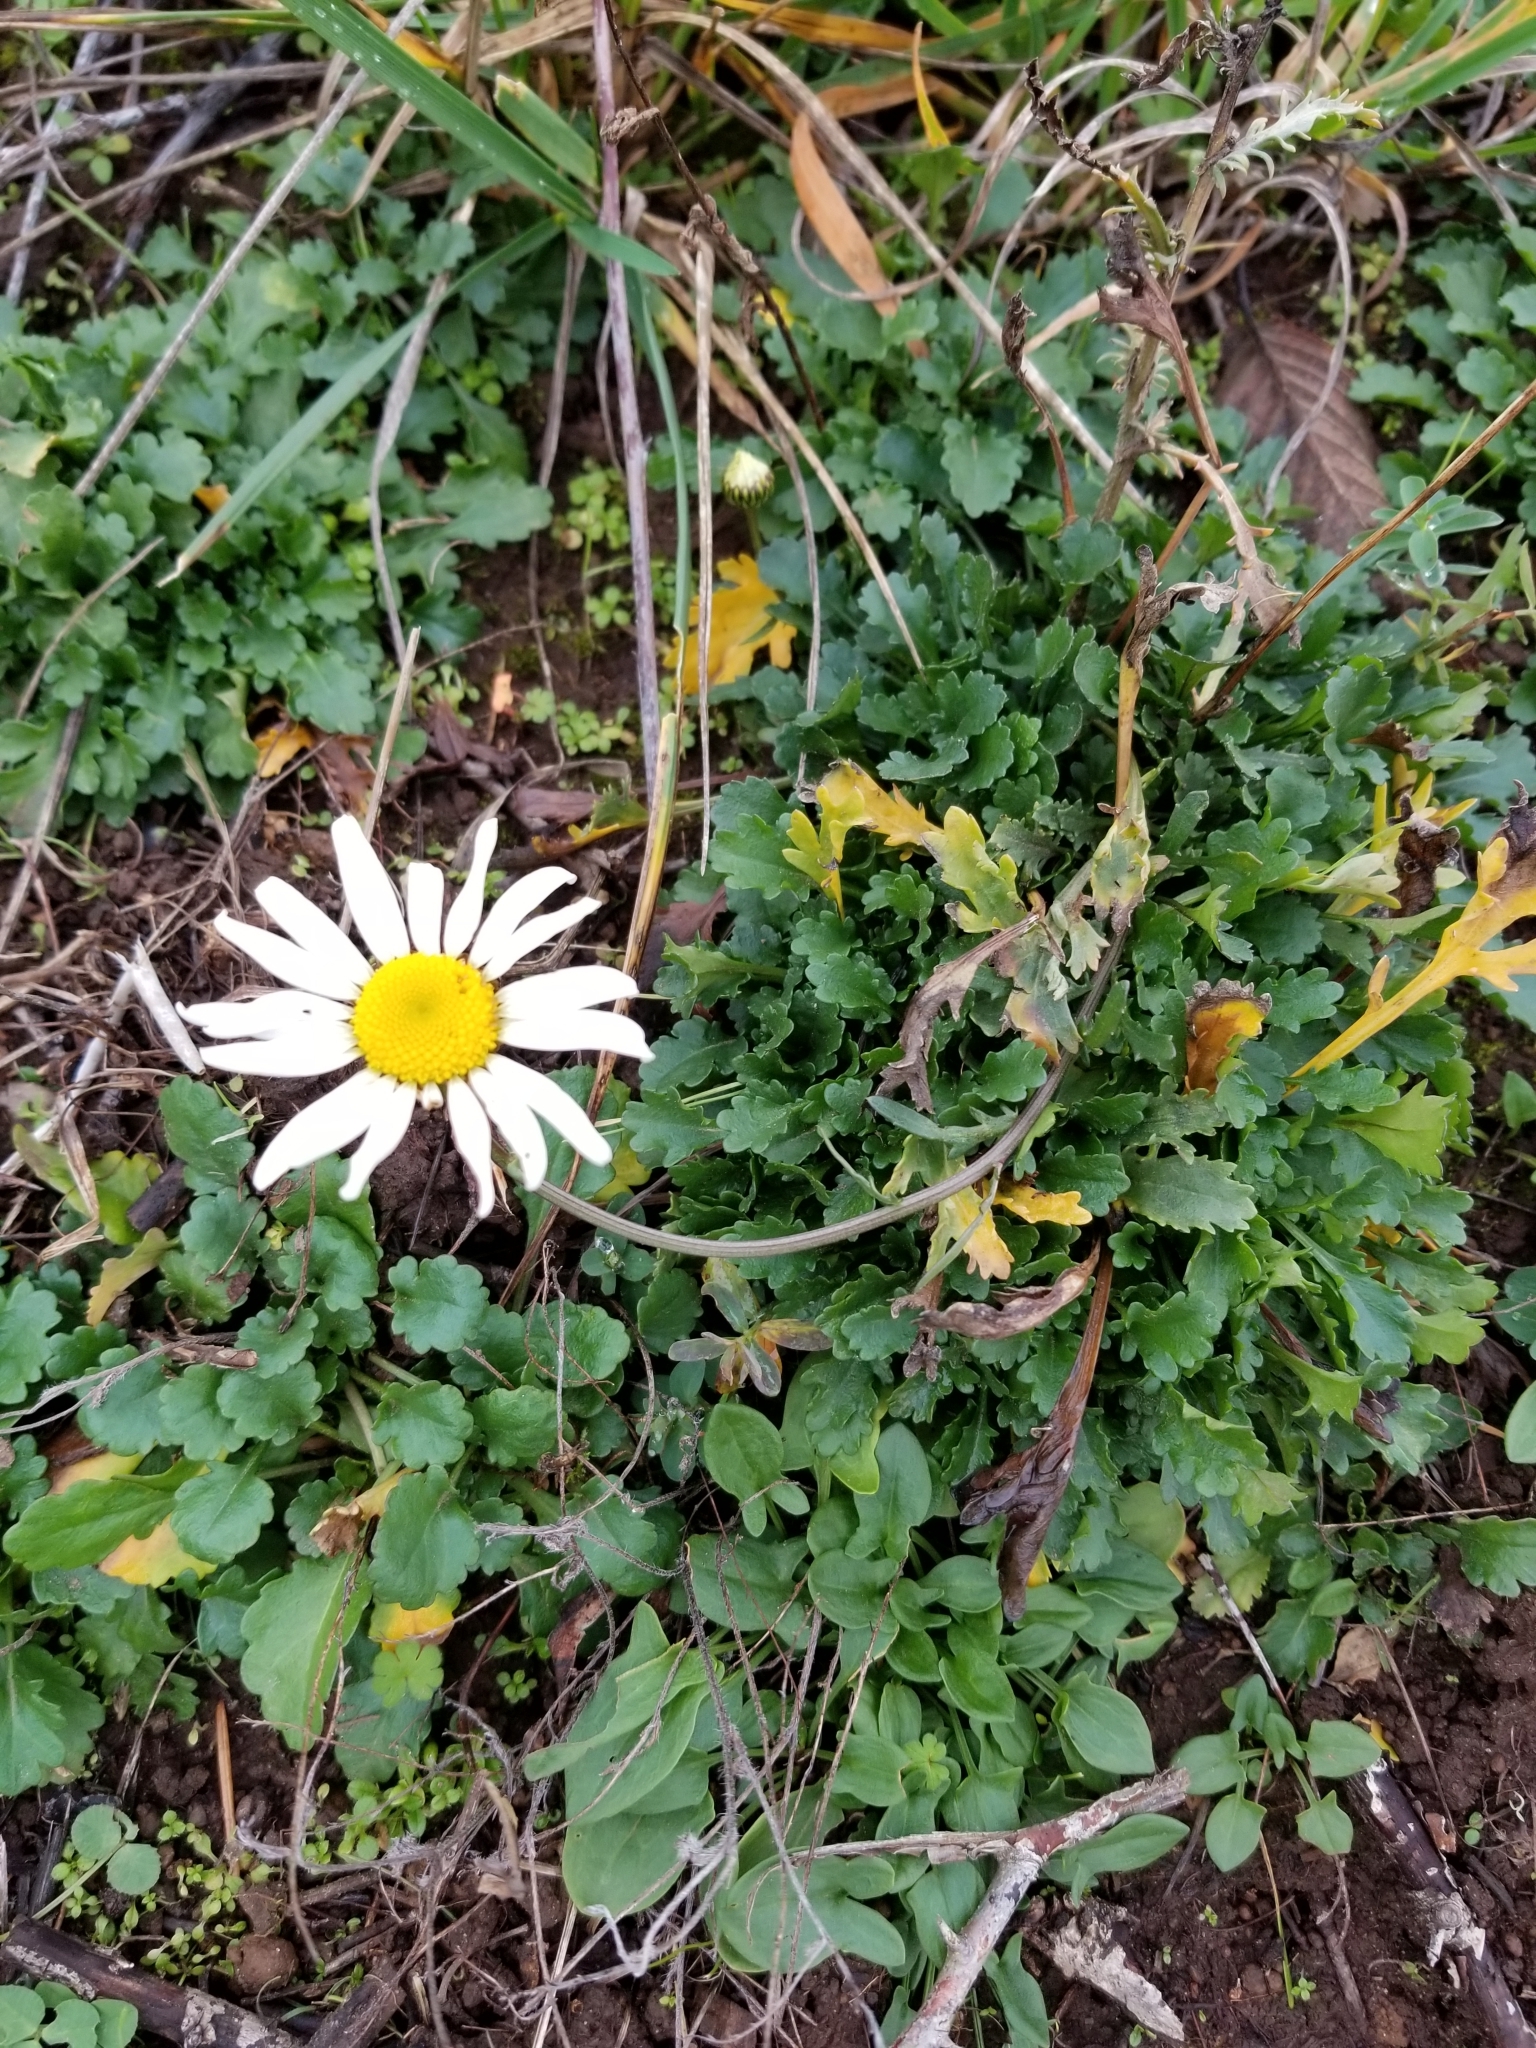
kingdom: Plantae
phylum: Tracheophyta
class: Magnoliopsida
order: Asterales
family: Asteraceae
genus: Leucanthemum
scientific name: Leucanthemum vulgare
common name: Oxeye daisy
